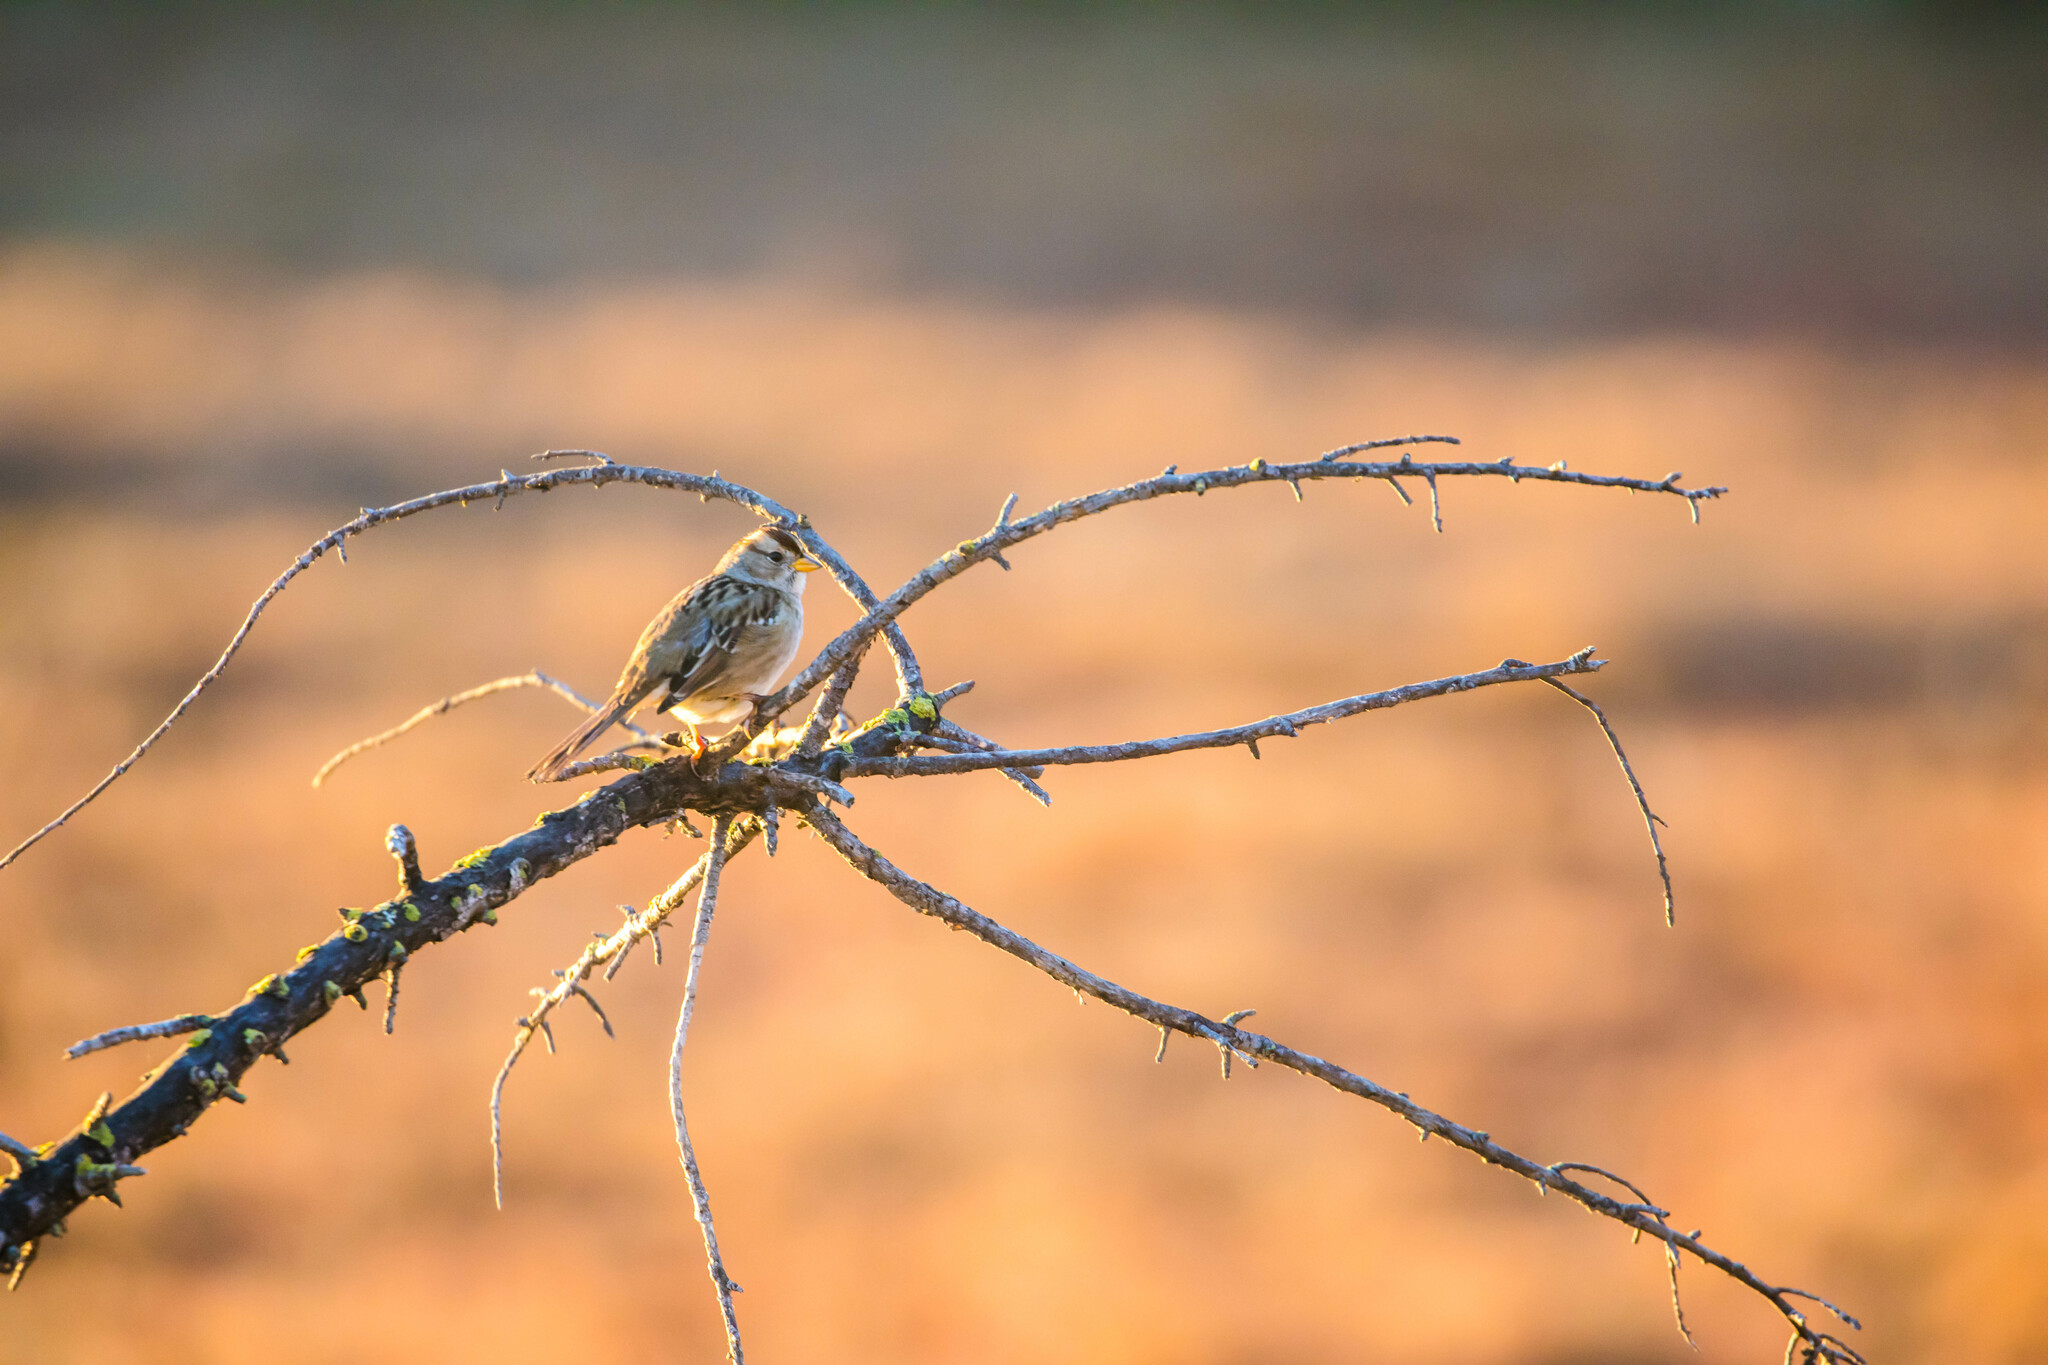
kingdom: Animalia
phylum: Chordata
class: Aves
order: Passeriformes
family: Passerellidae
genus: Zonotrichia
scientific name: Zonotrichia leucophrys
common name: White-crowned sparrow
